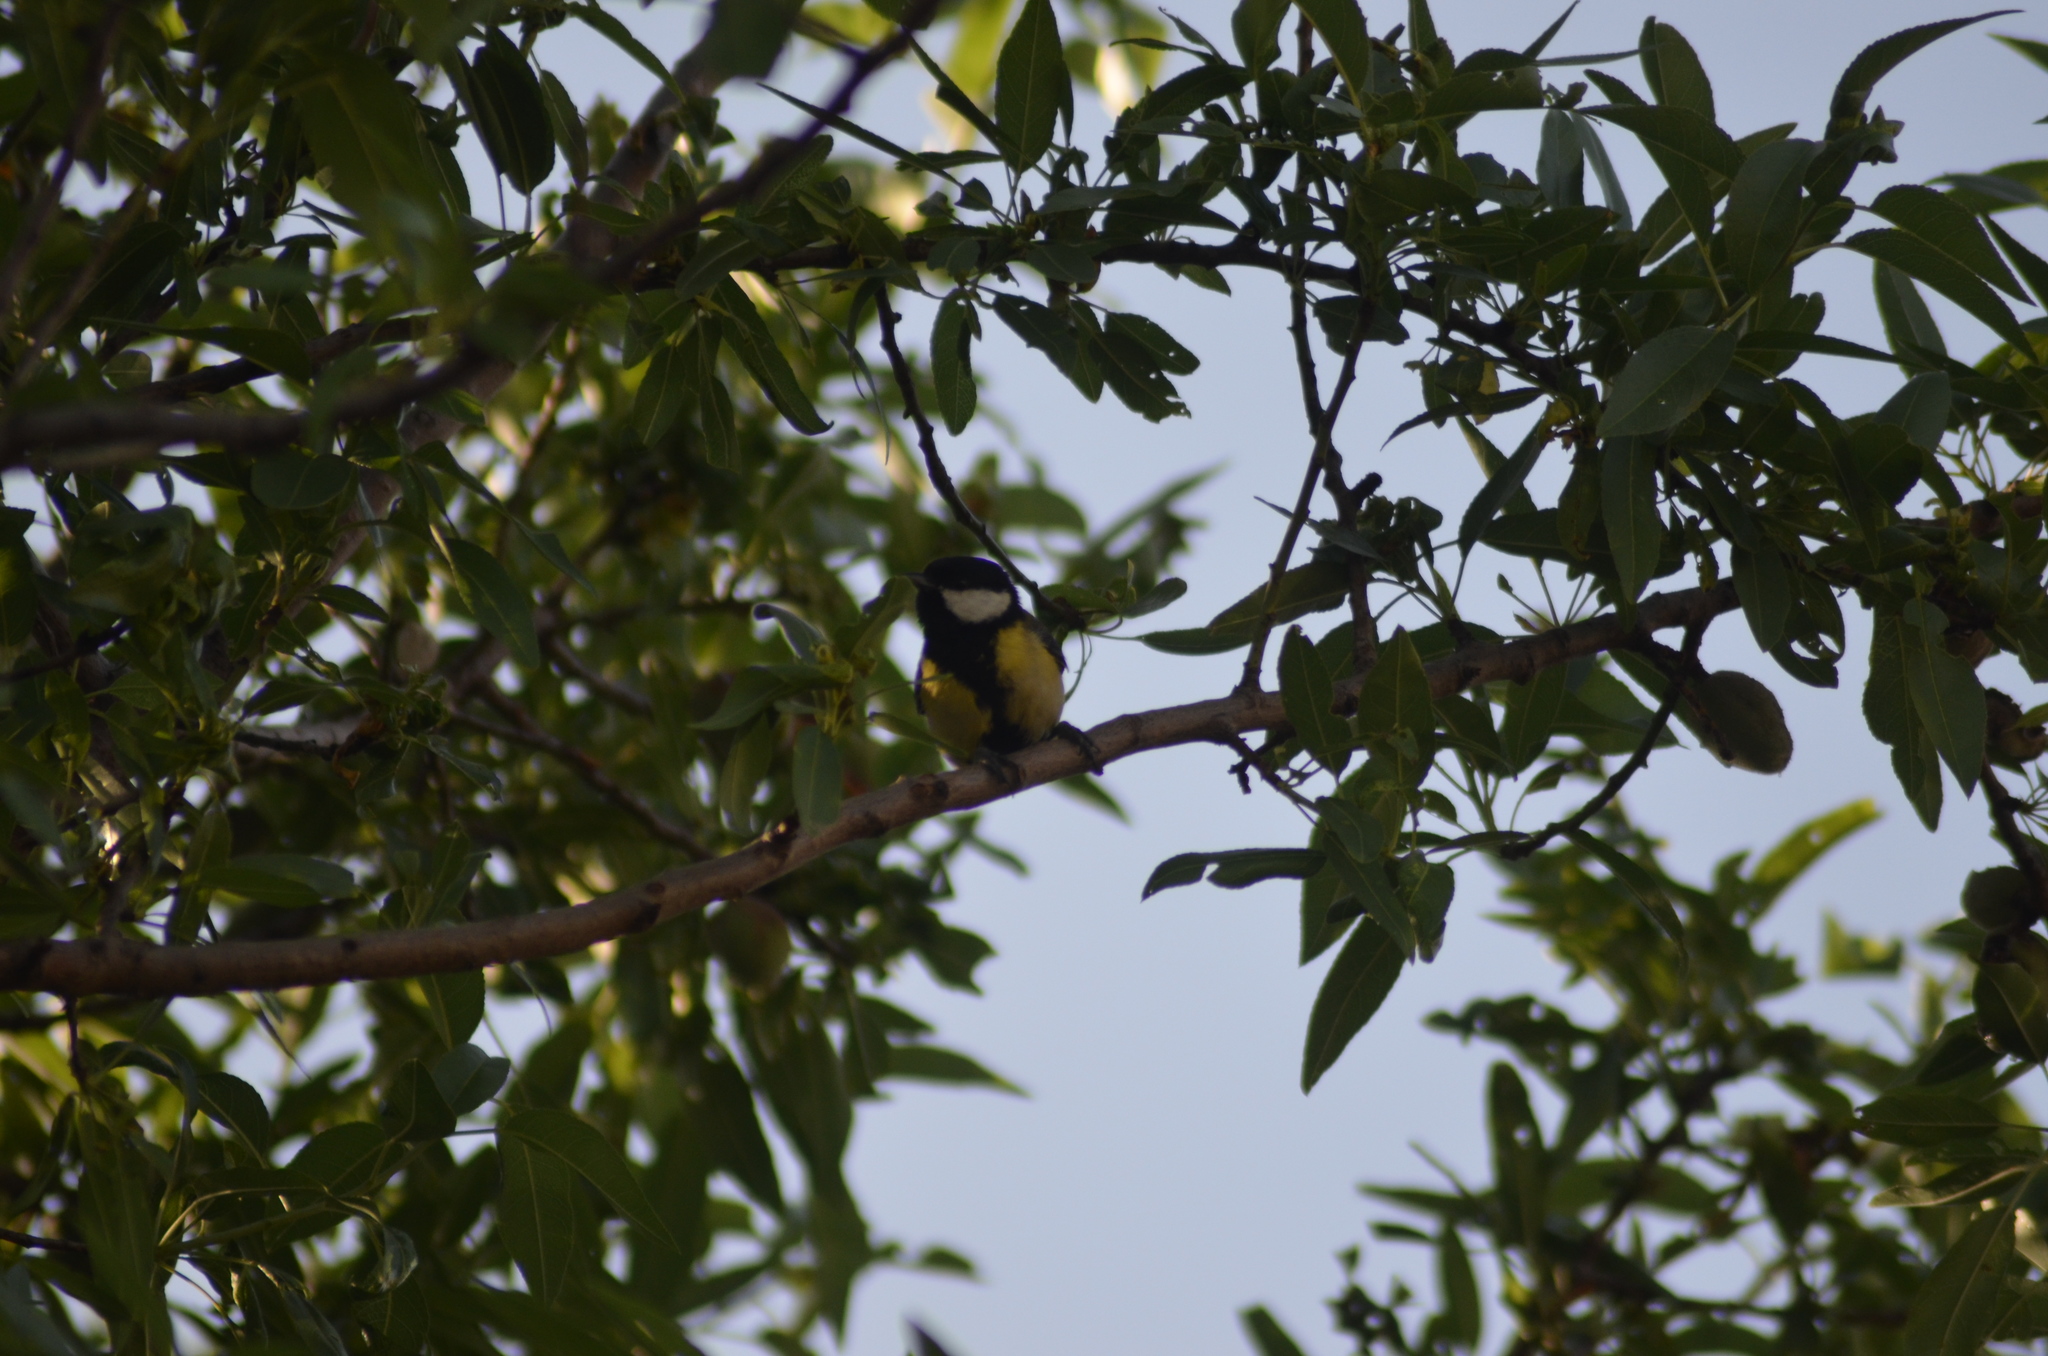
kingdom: Animalia
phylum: Chordata
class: Aves
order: Passeriformes
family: Paridae
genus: Parus
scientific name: Parus major
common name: Great tit
